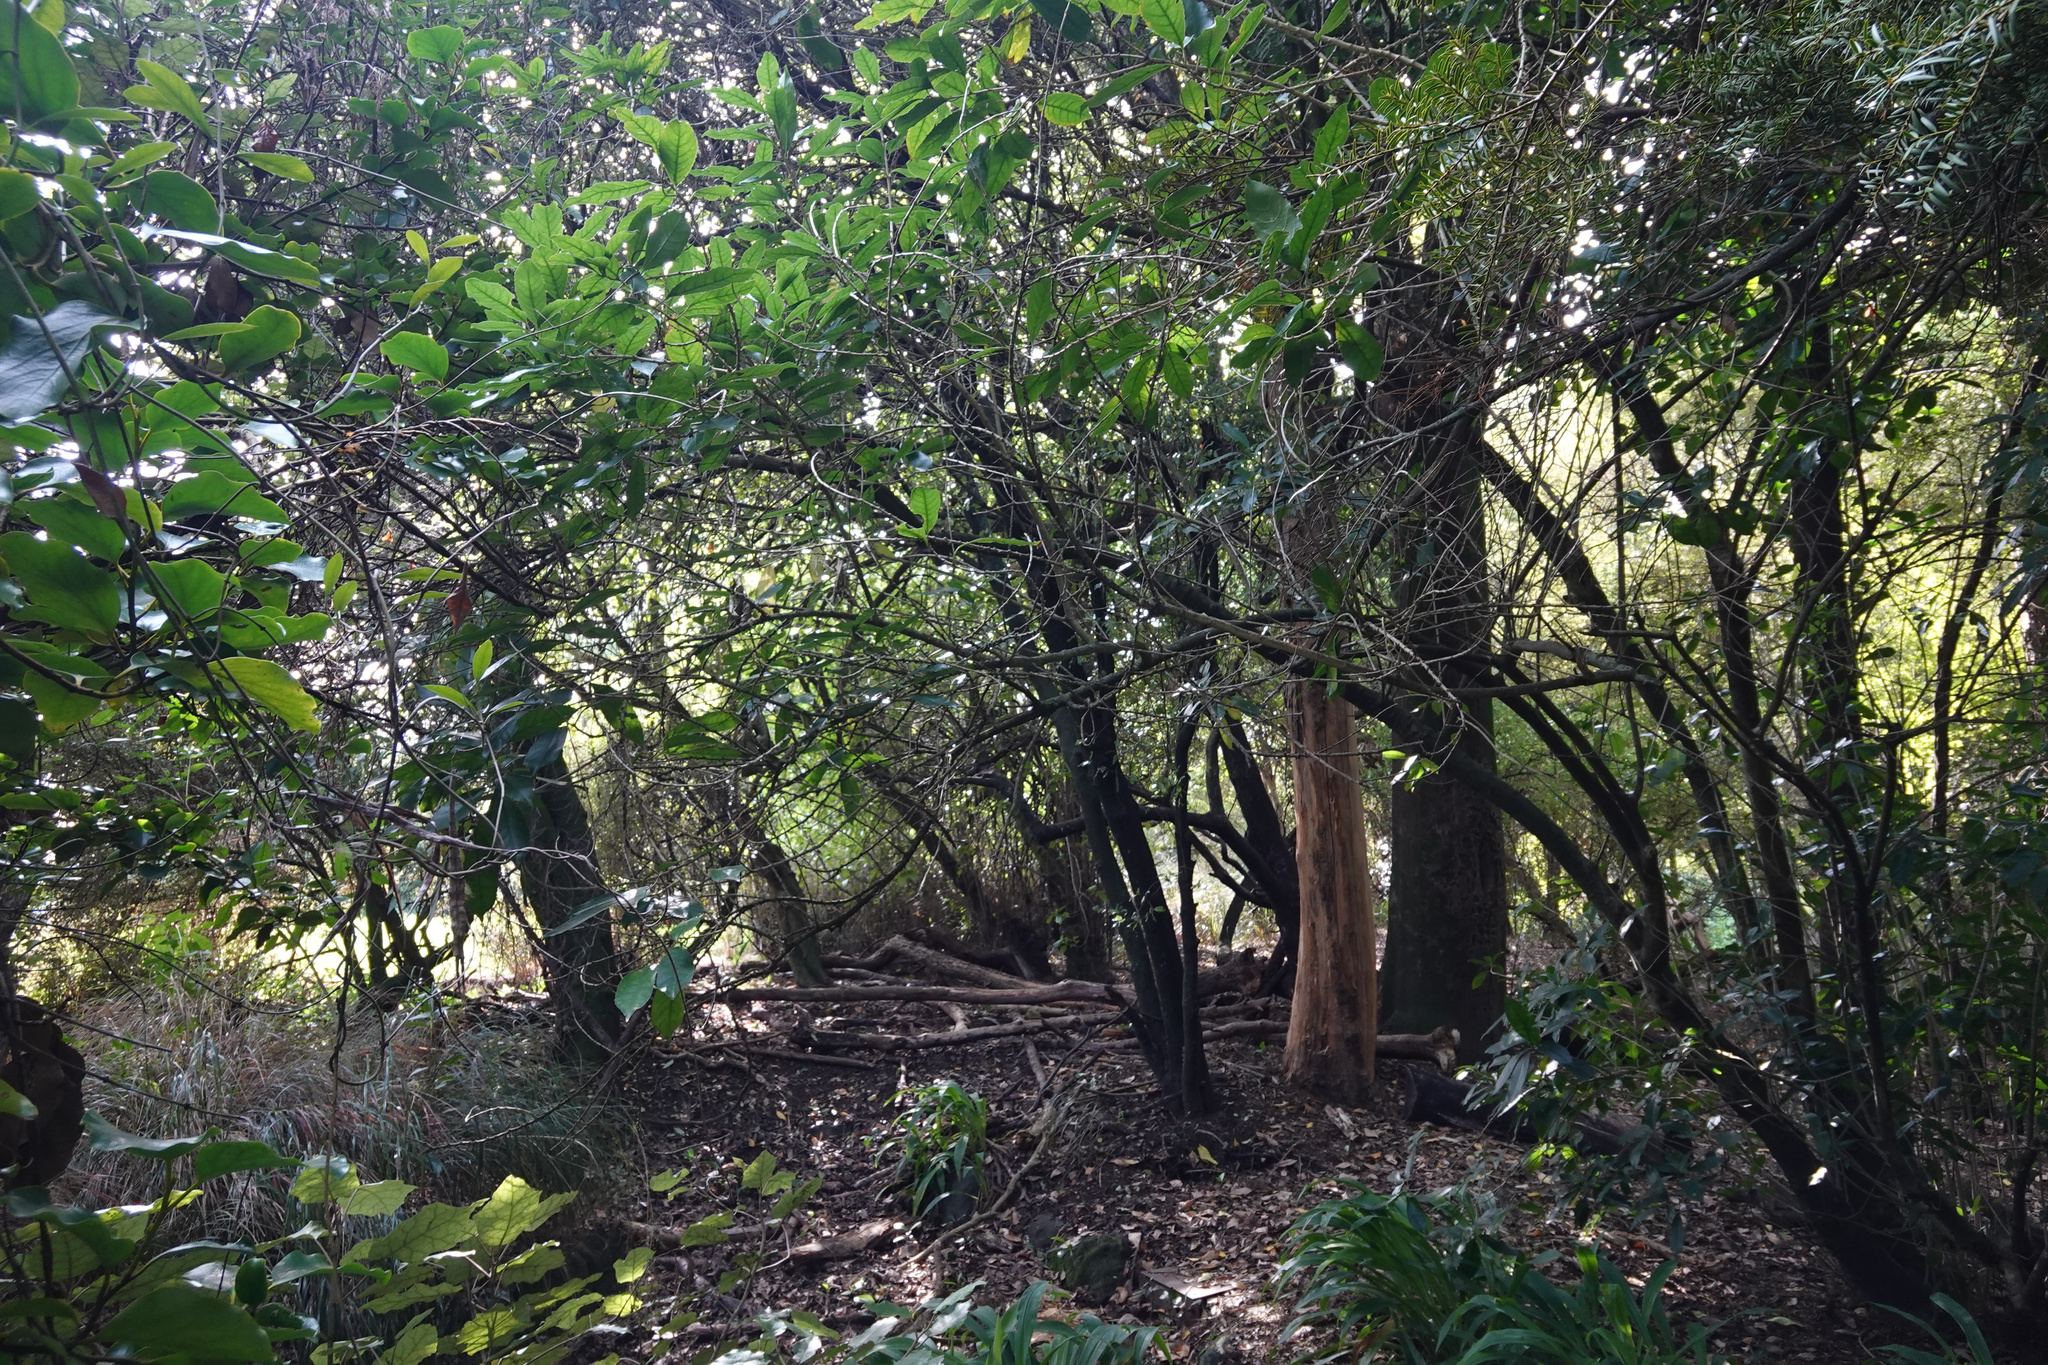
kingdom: Plantae
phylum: Tracheophyta
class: Magnoliopsida
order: Malpighiales
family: Violaceae
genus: Melicytus
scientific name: Melicytus ramiflorus
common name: Mahoe
